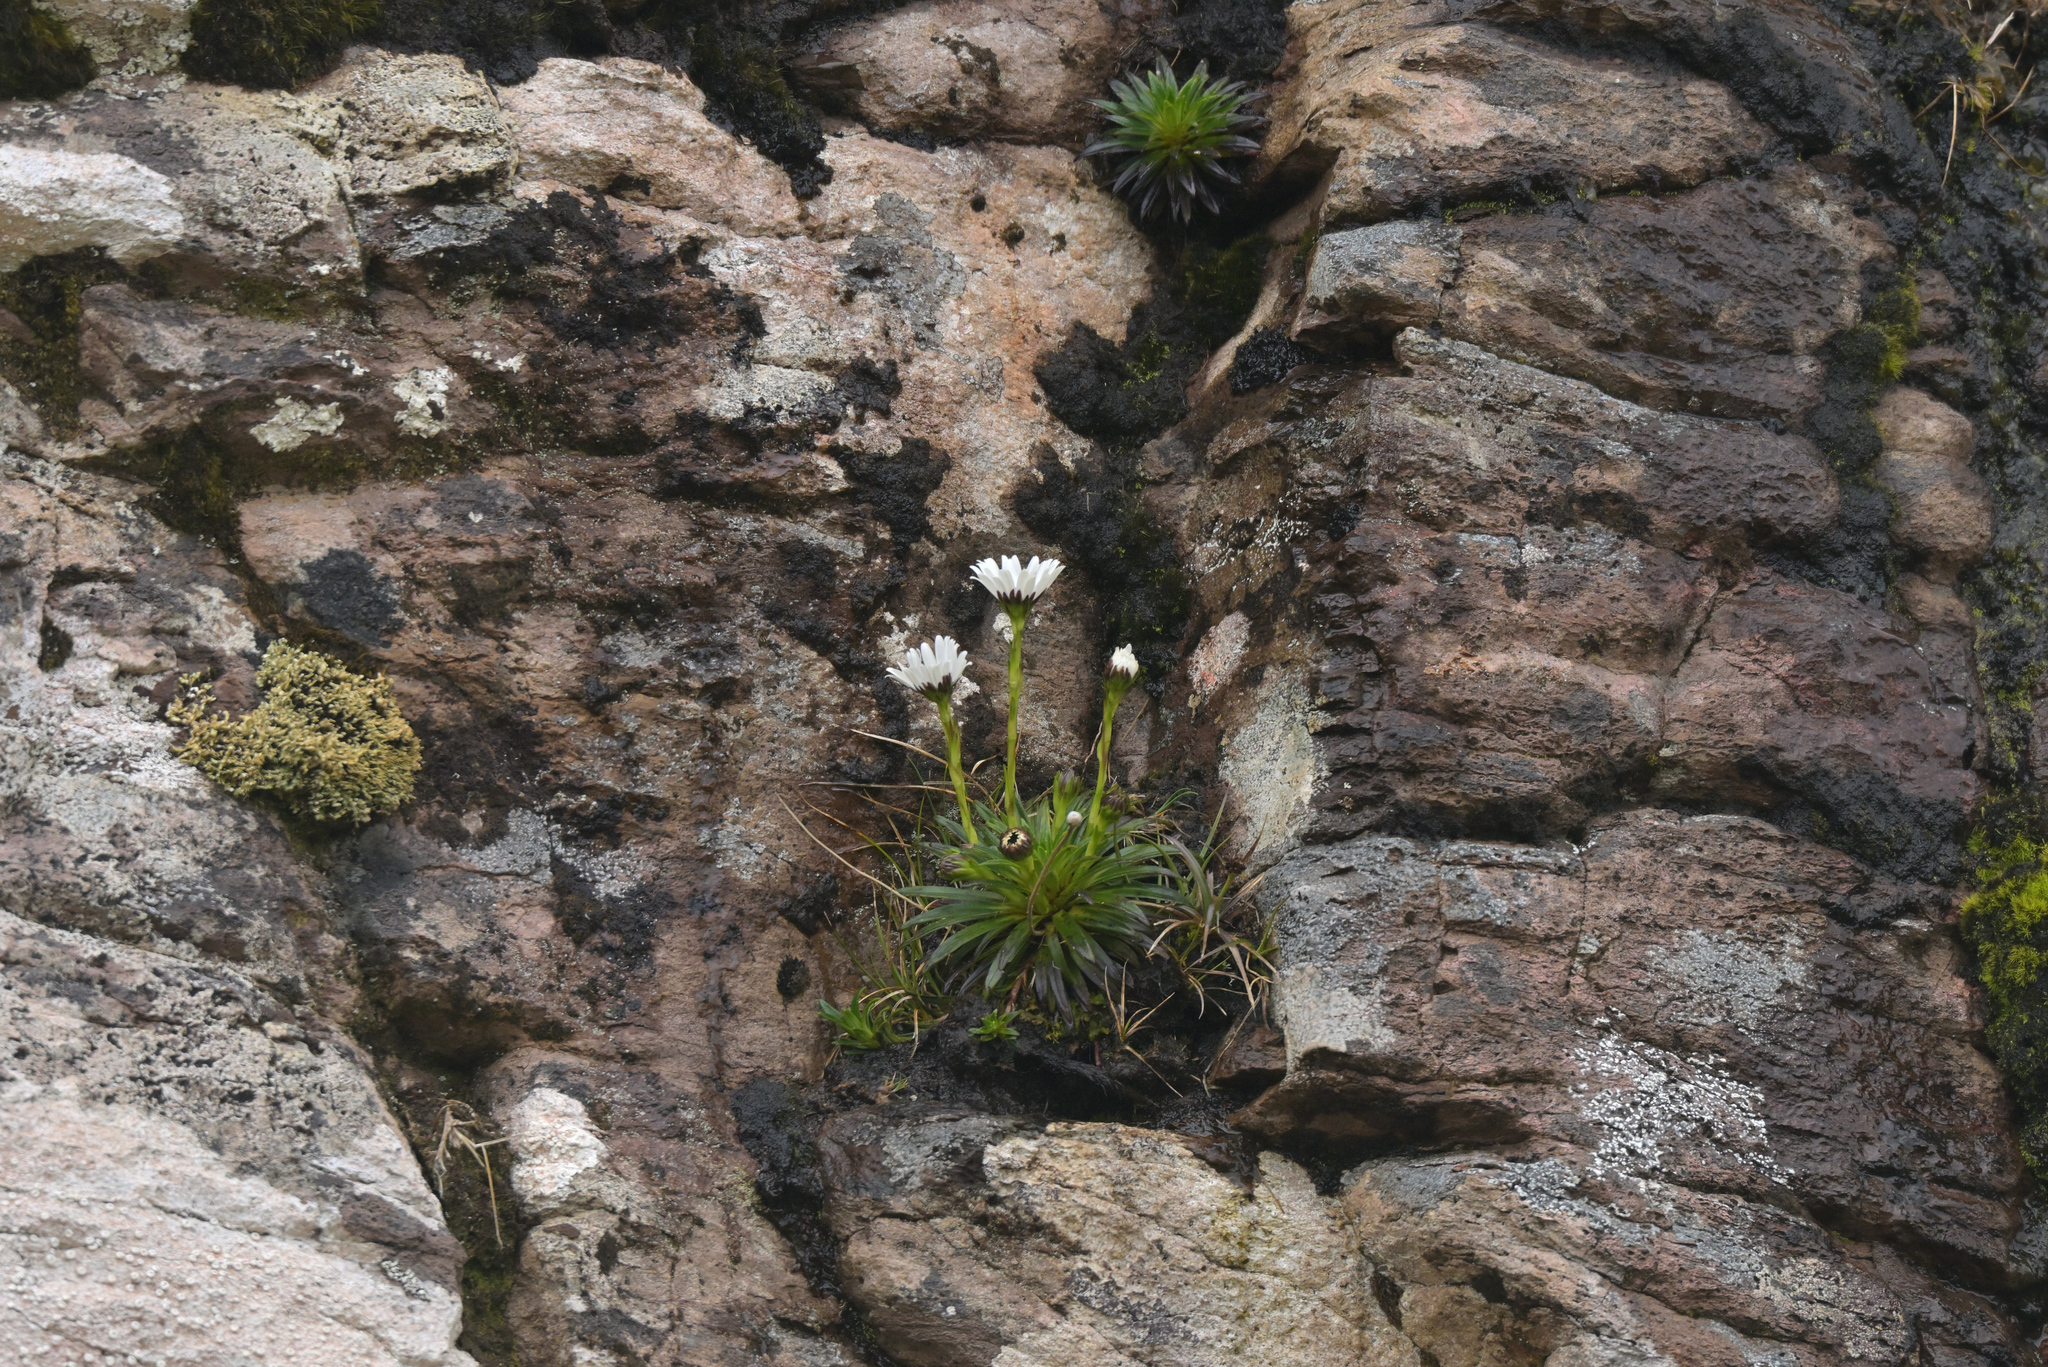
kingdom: Plantae
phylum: Tracheophyta
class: Magnoliopsida
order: Asterales
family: Asteraceae
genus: Damnamenia
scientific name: Damnamenia vernicosa
